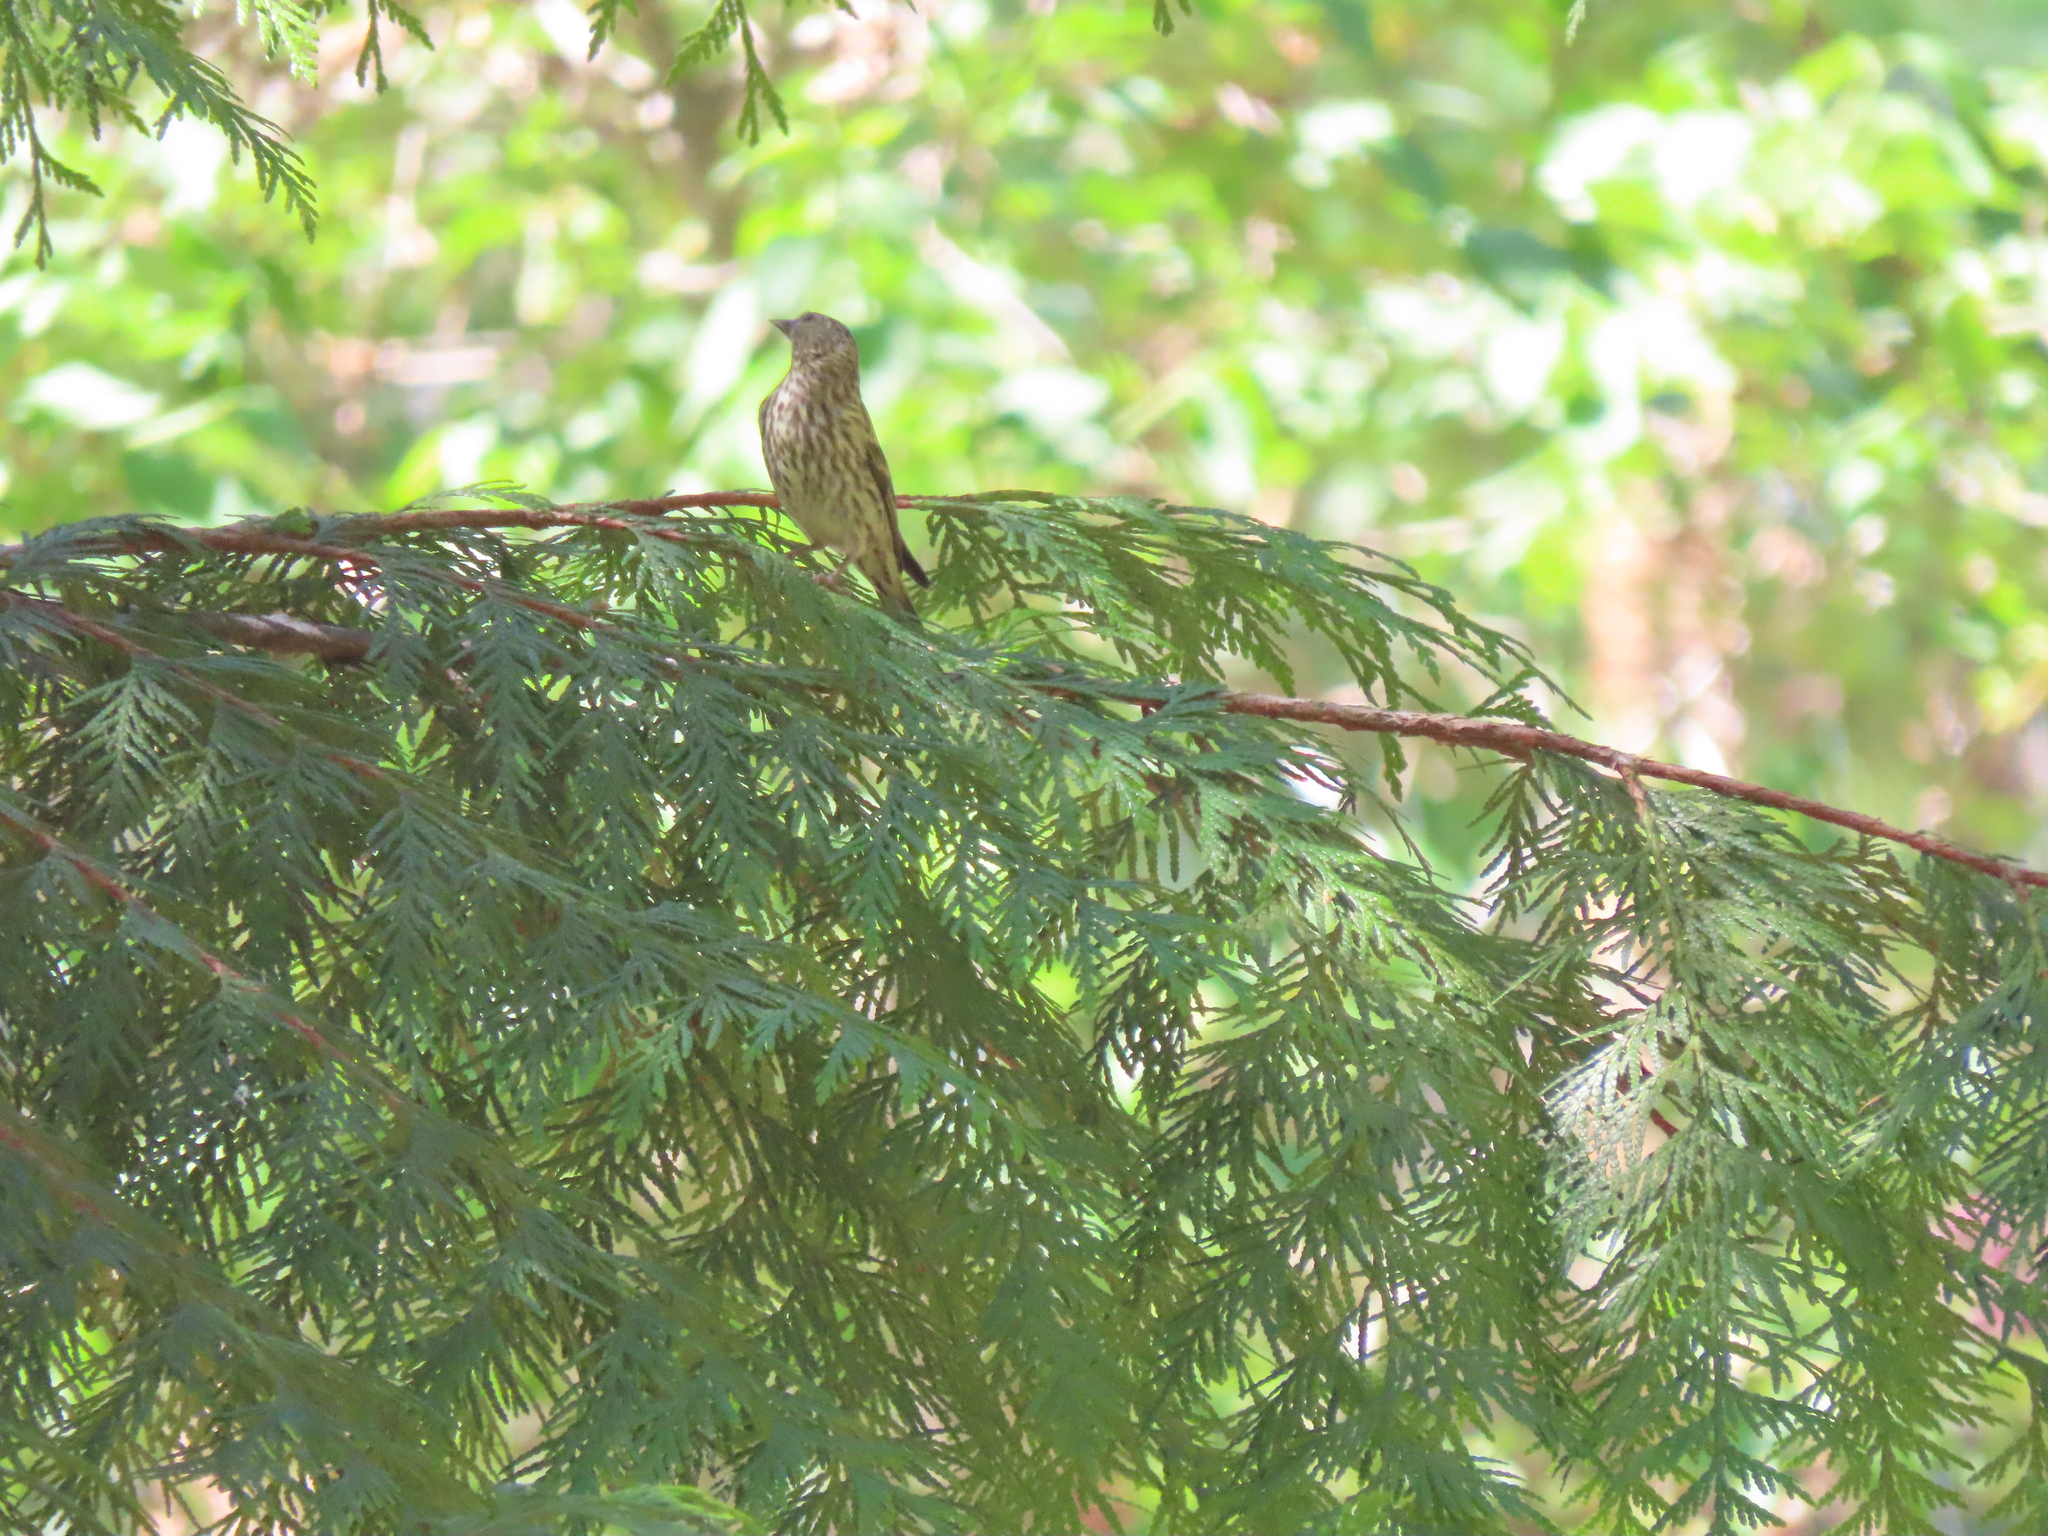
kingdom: Animalia
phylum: Chordata
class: Aves
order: Passeriformes
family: Fringillidae
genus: Spinus
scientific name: Spinus pinus
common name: Pine siskin
